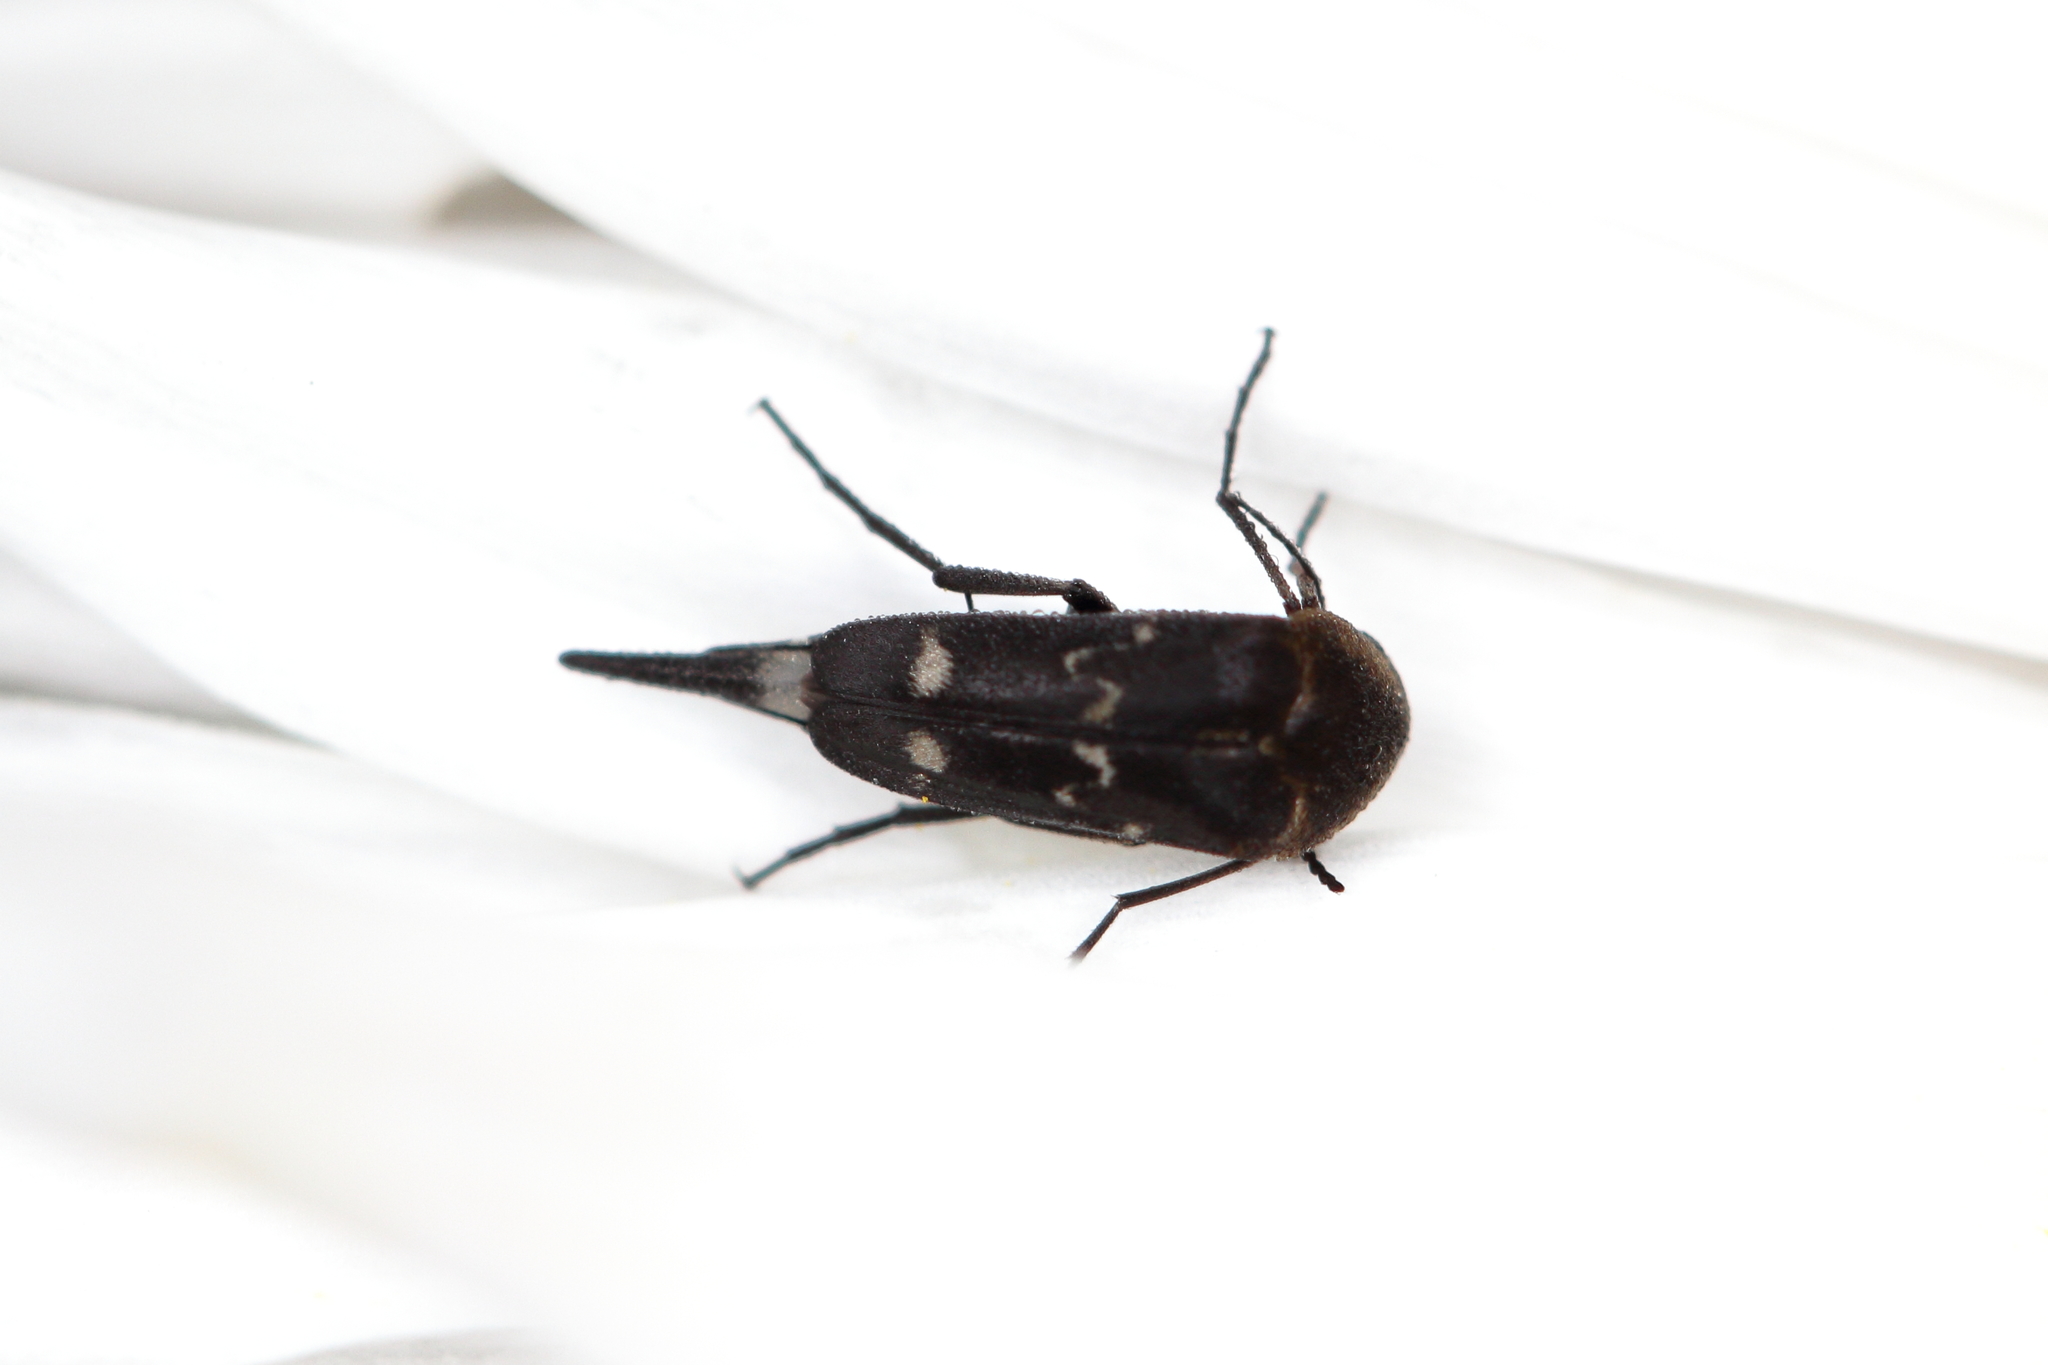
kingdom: Animalia
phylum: Arthropoda
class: Insecta
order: Coleoptera
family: Mordellidae
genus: Mordella
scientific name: Mordella
